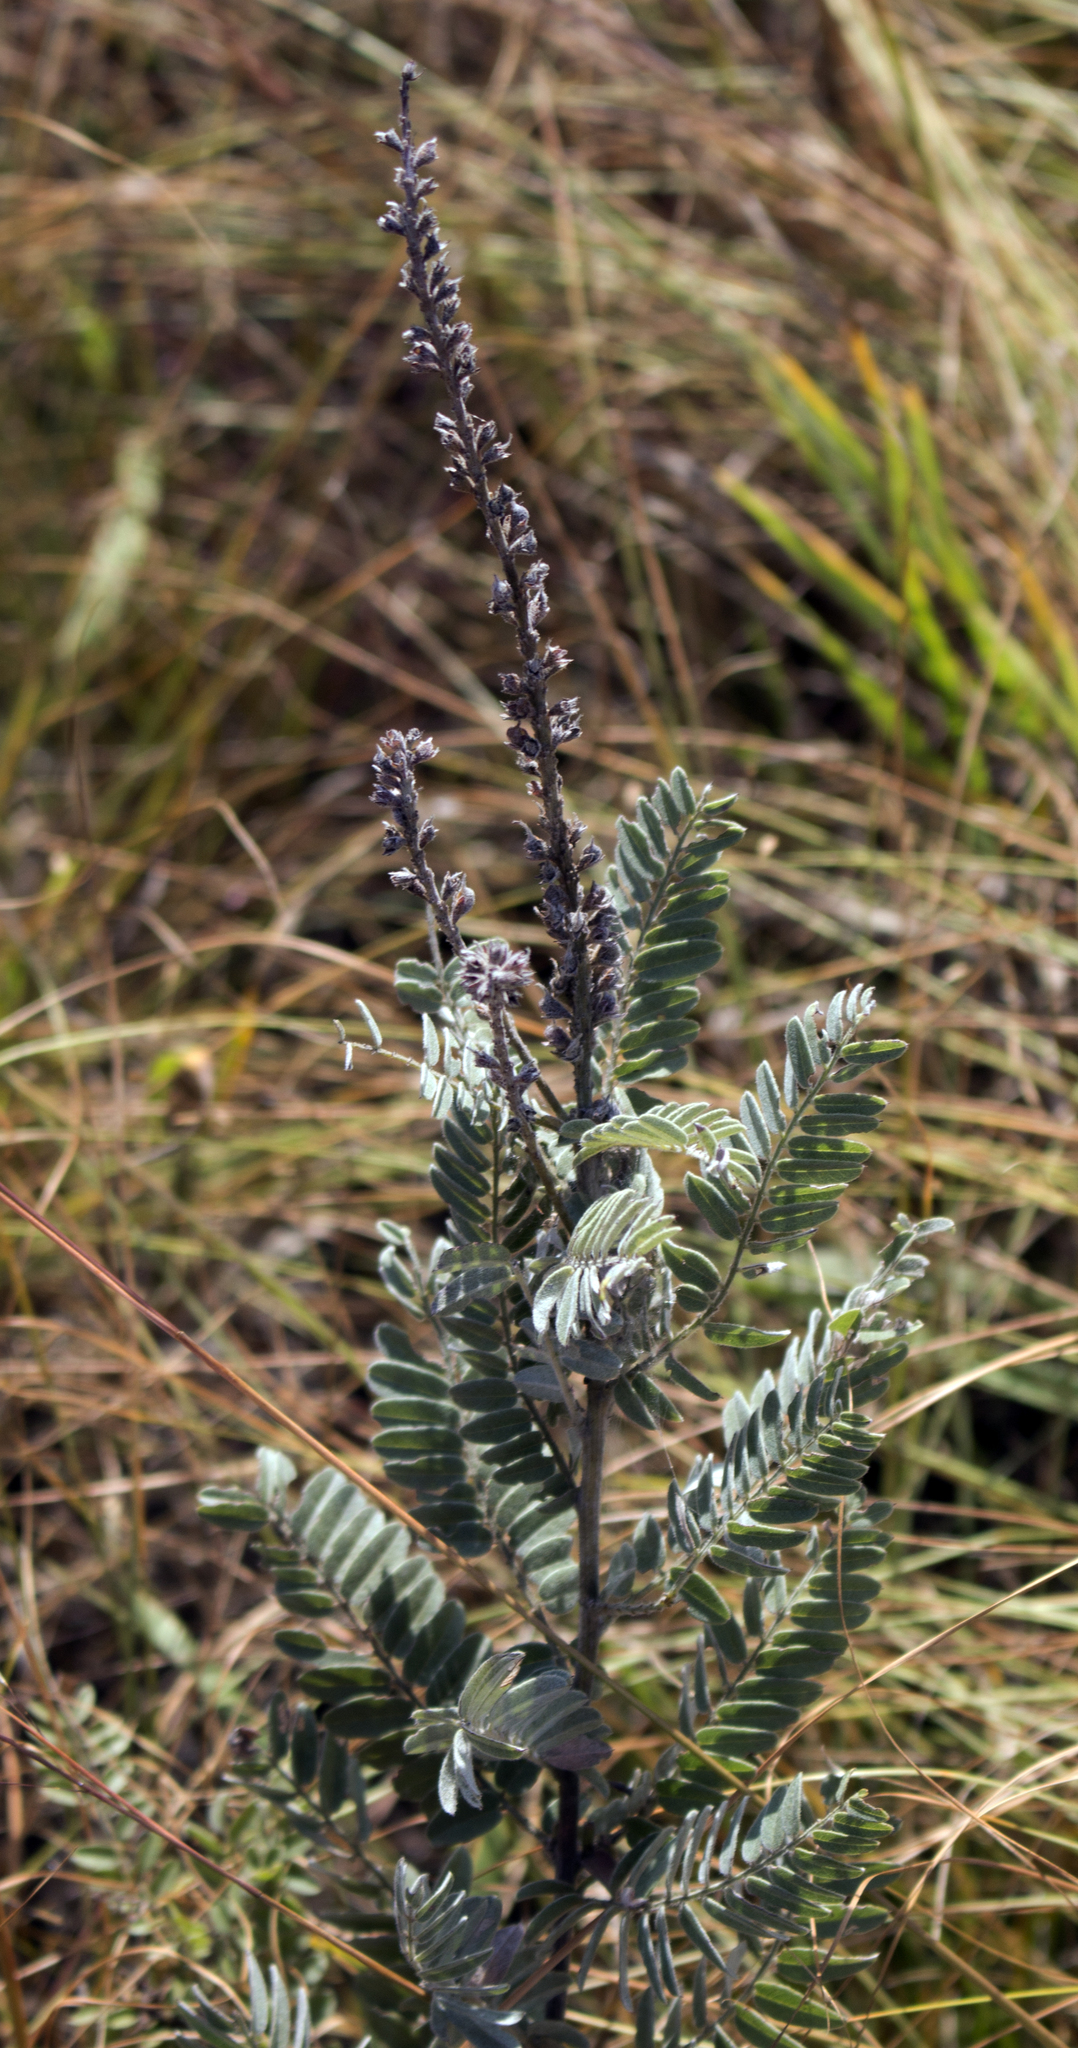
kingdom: Plantae
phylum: Tracheophyta
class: Magnoliopsida
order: Fabales
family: Fabaceae
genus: Amorpha
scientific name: Amorpha canescens
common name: Leadplant
